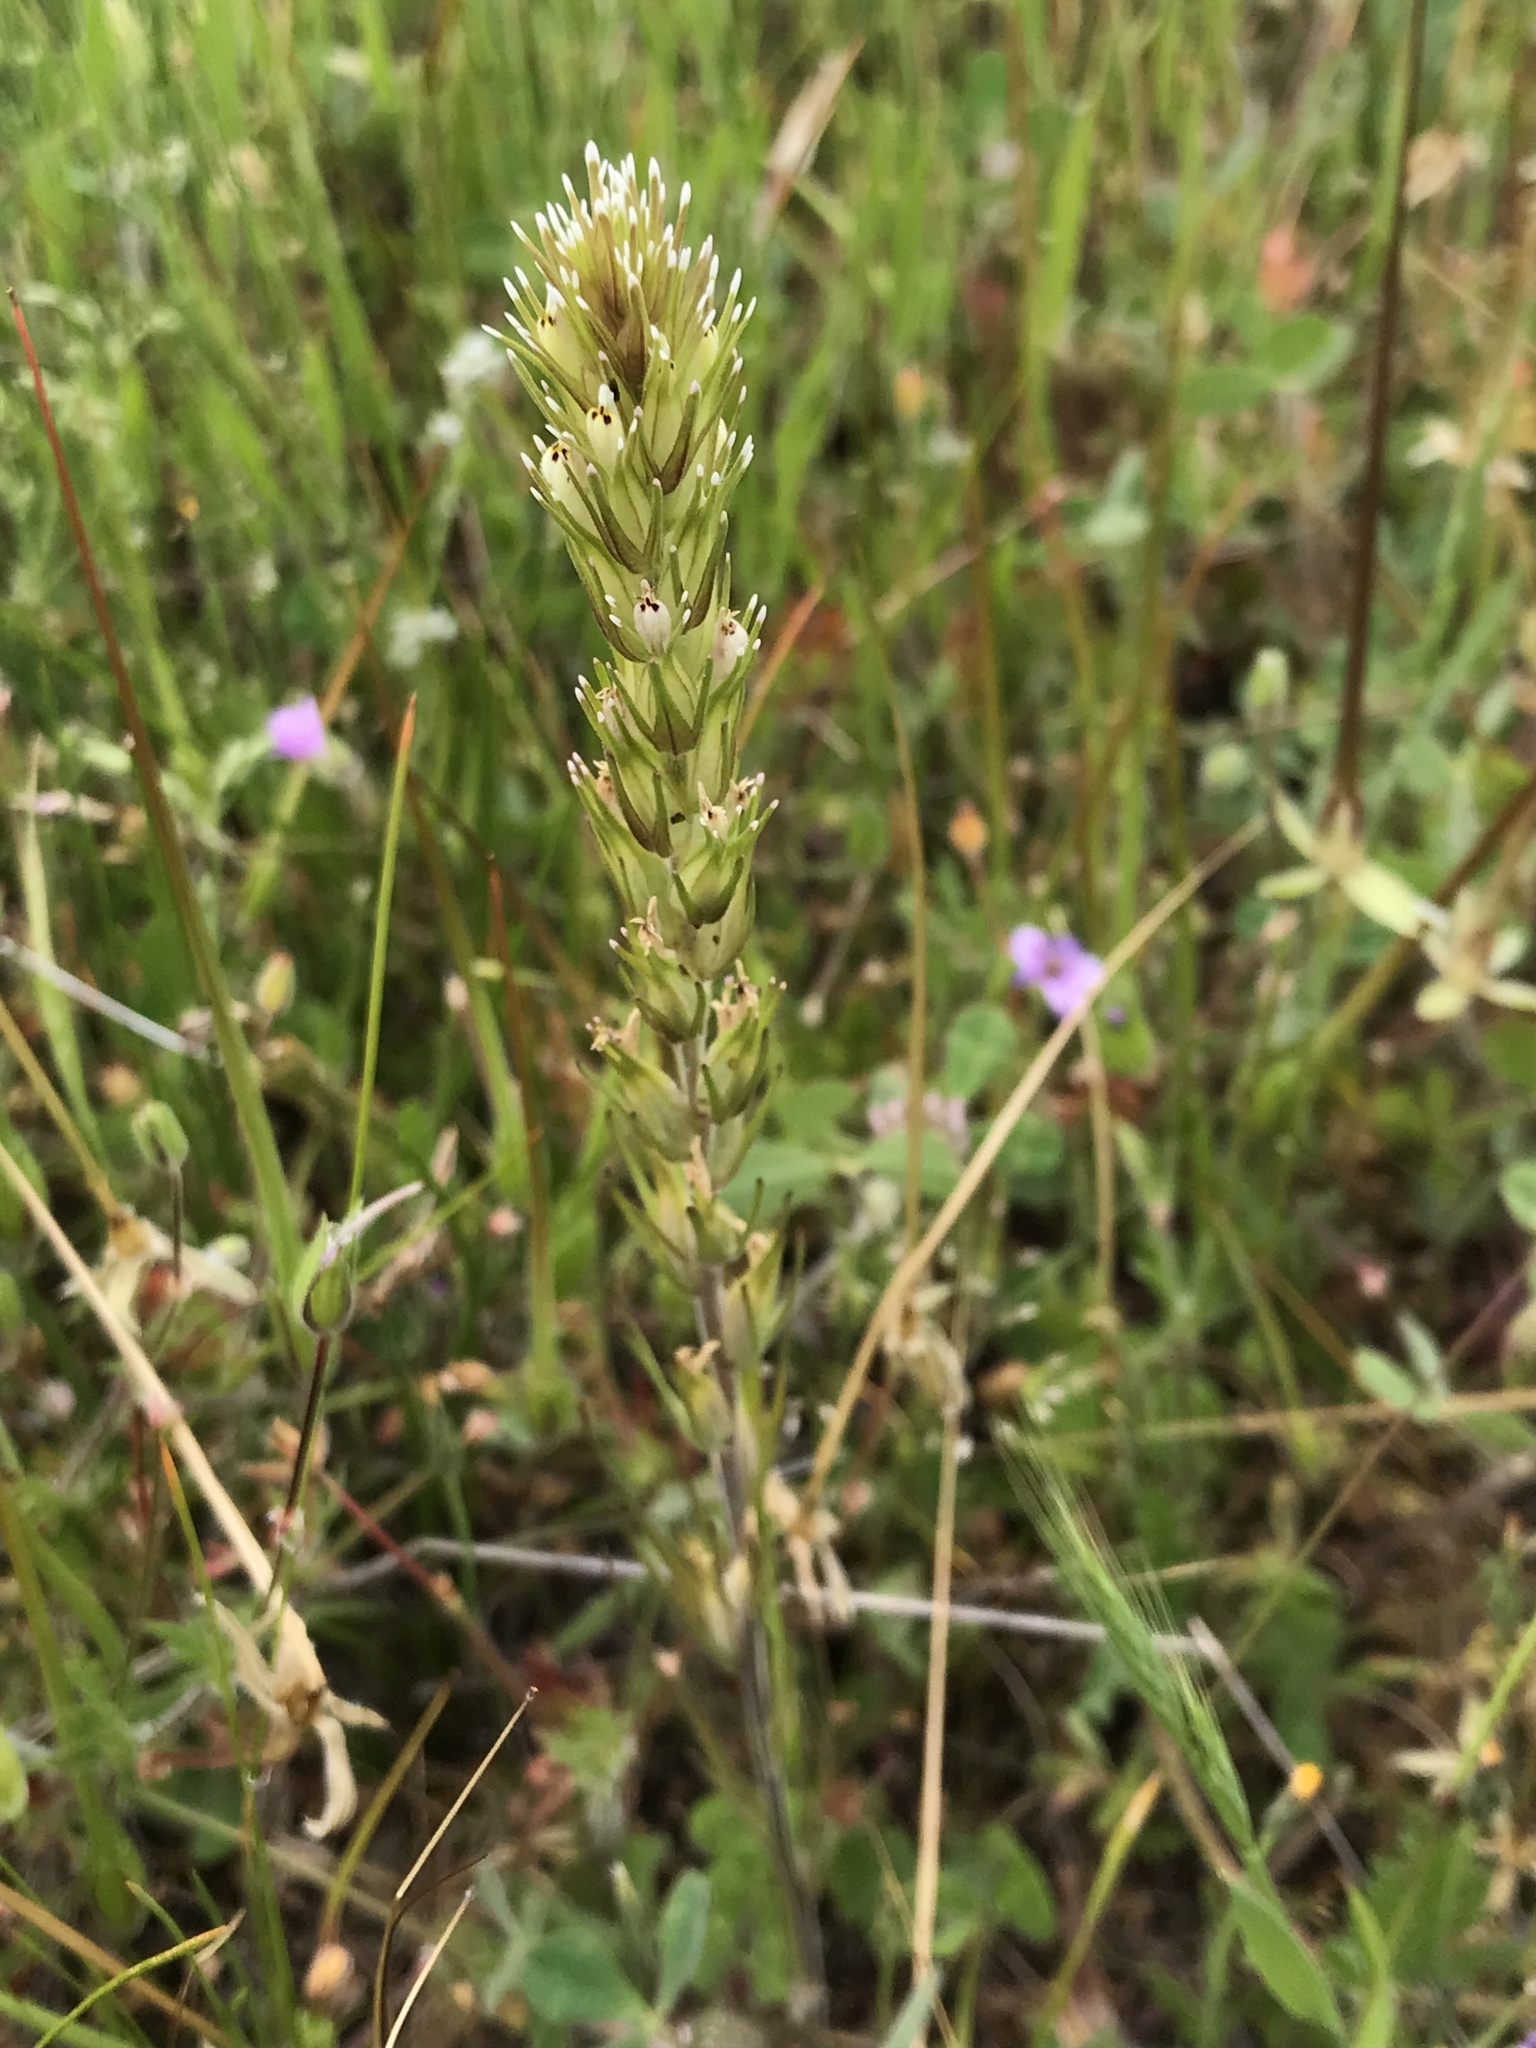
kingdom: Plantae
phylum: Tracheophyta
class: Magnoliopsida
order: Lamiales
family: Orobanchaceae
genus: Castilleja
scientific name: Castilleja attenuata
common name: Valley tassels
